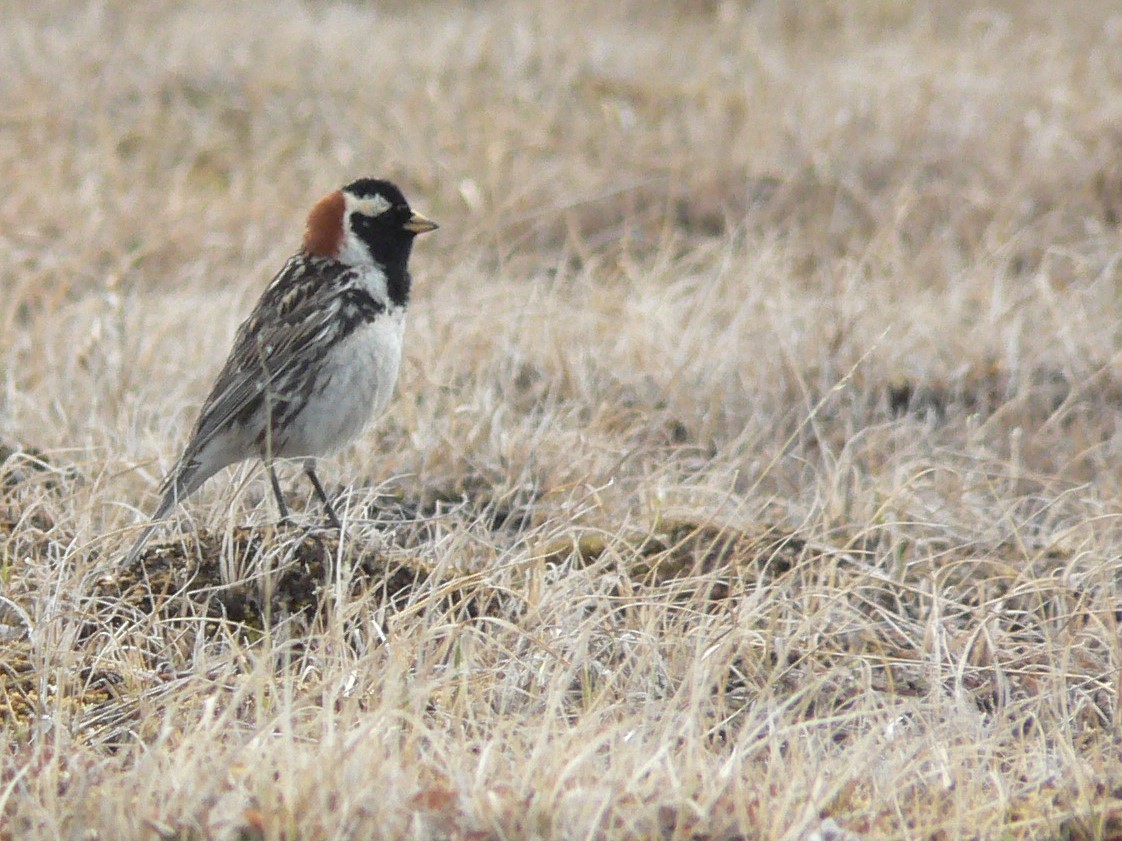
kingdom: Animalia
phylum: Chordata
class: Aves
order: Passeriformes
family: Calcariidae
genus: Calcarius
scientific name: Calcarius lapponicus
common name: Lapland longspur
